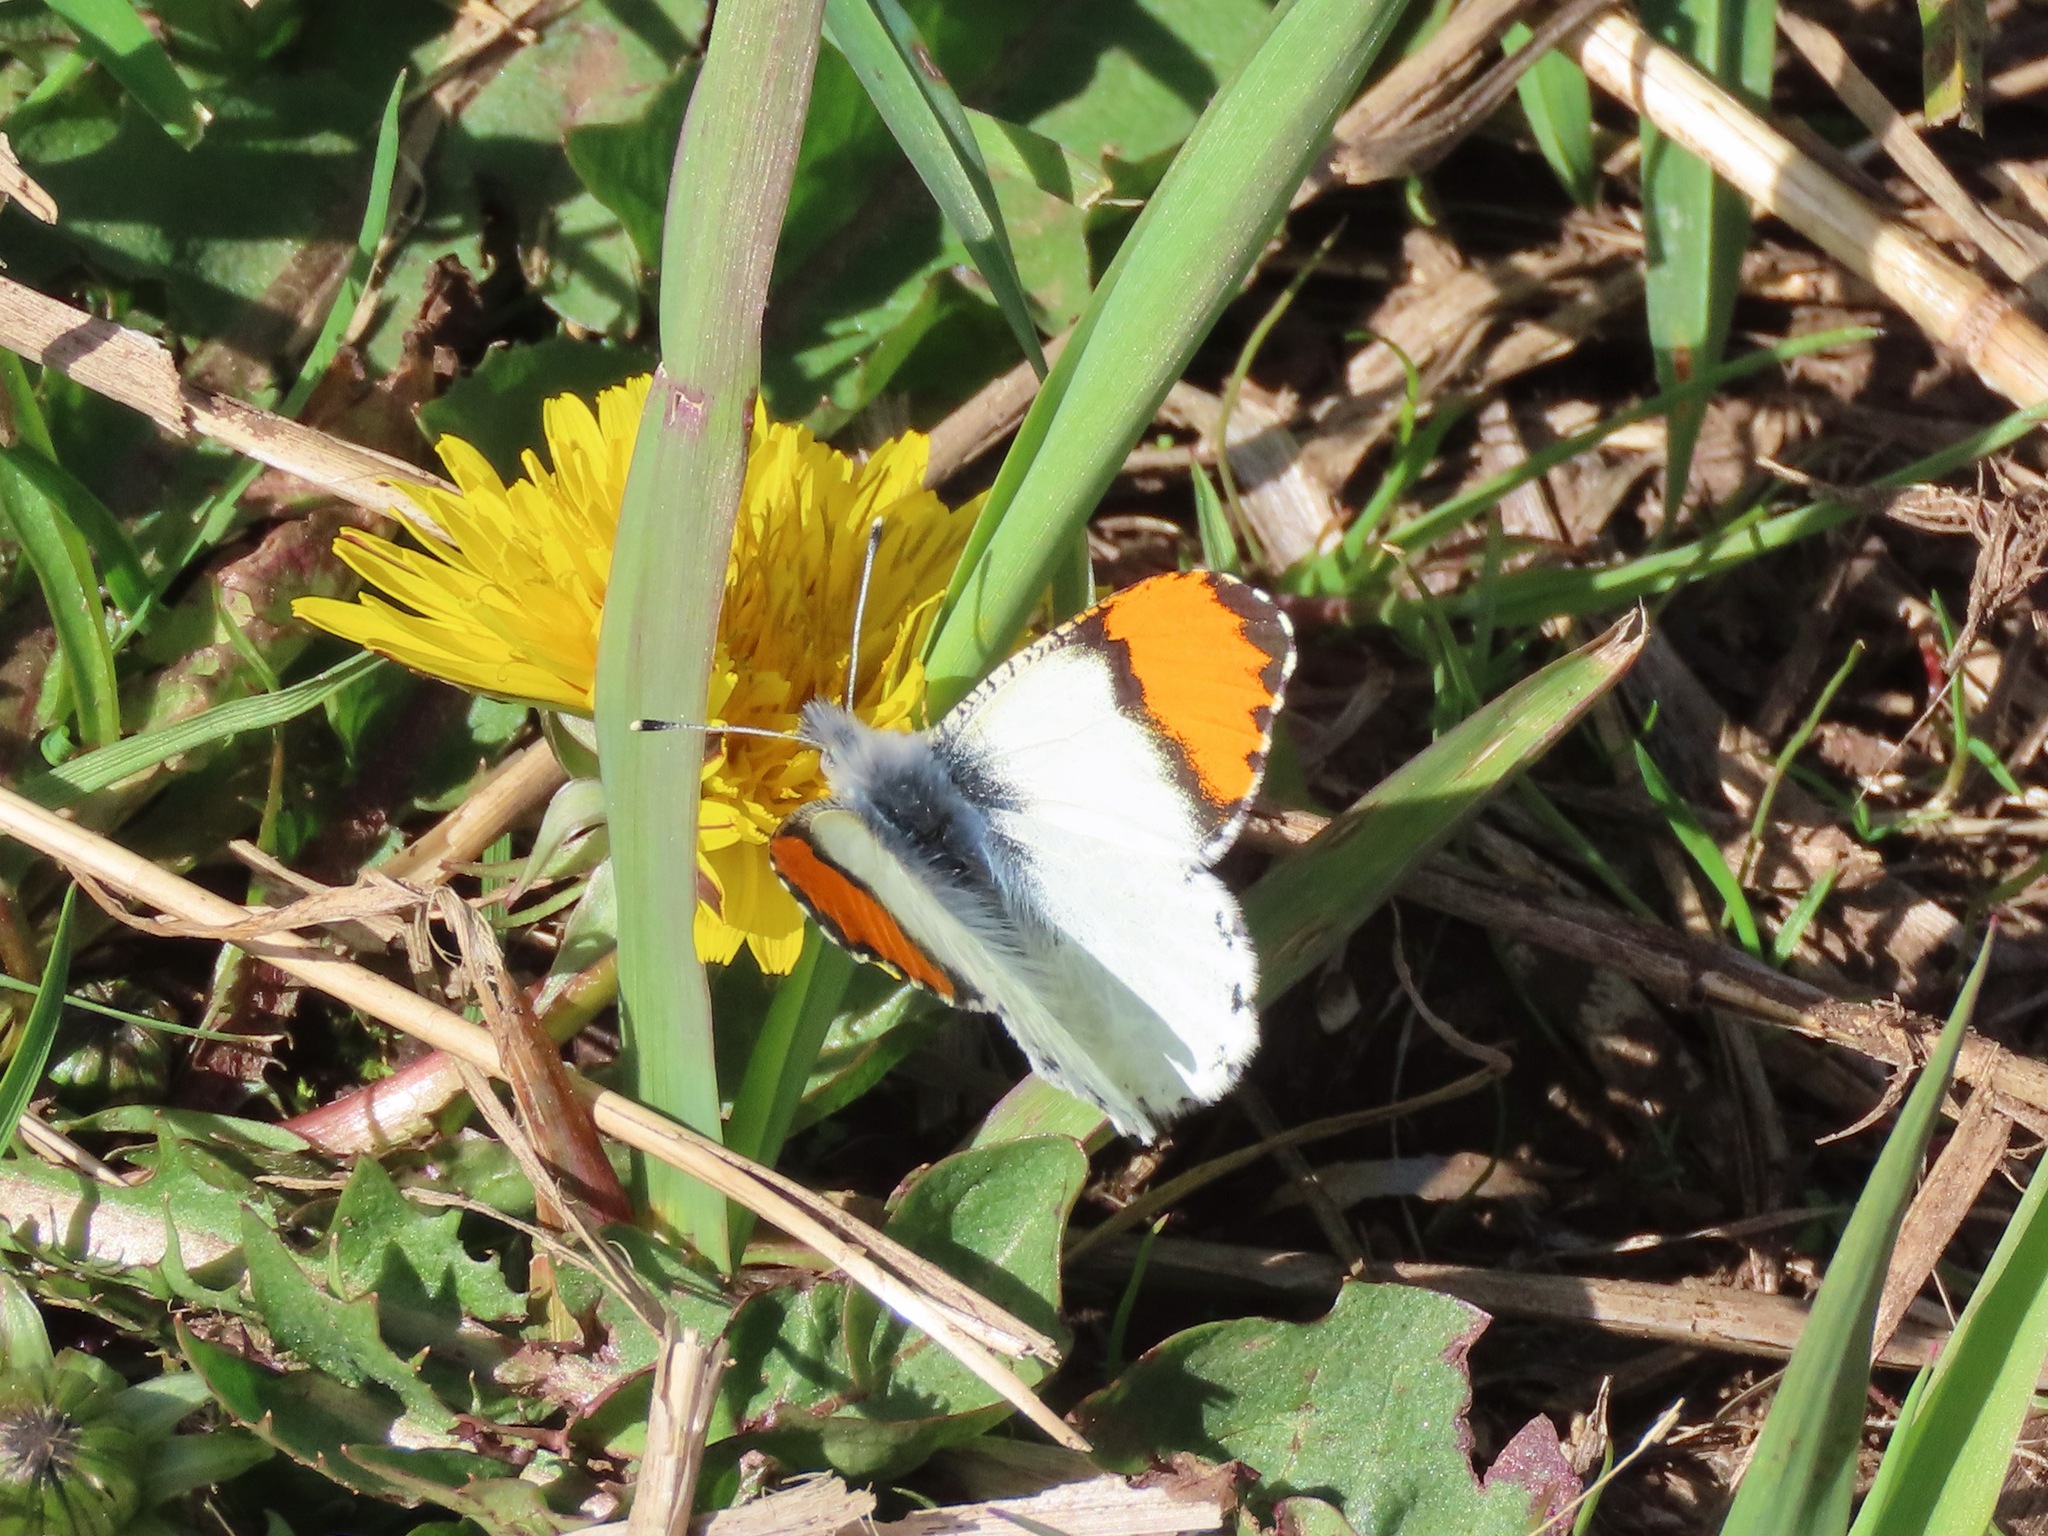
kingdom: Animalia
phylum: Arthropoda
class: Insecta
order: Lepidoptera
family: Pieridae
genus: Anthocharis
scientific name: Anthocharis julia
